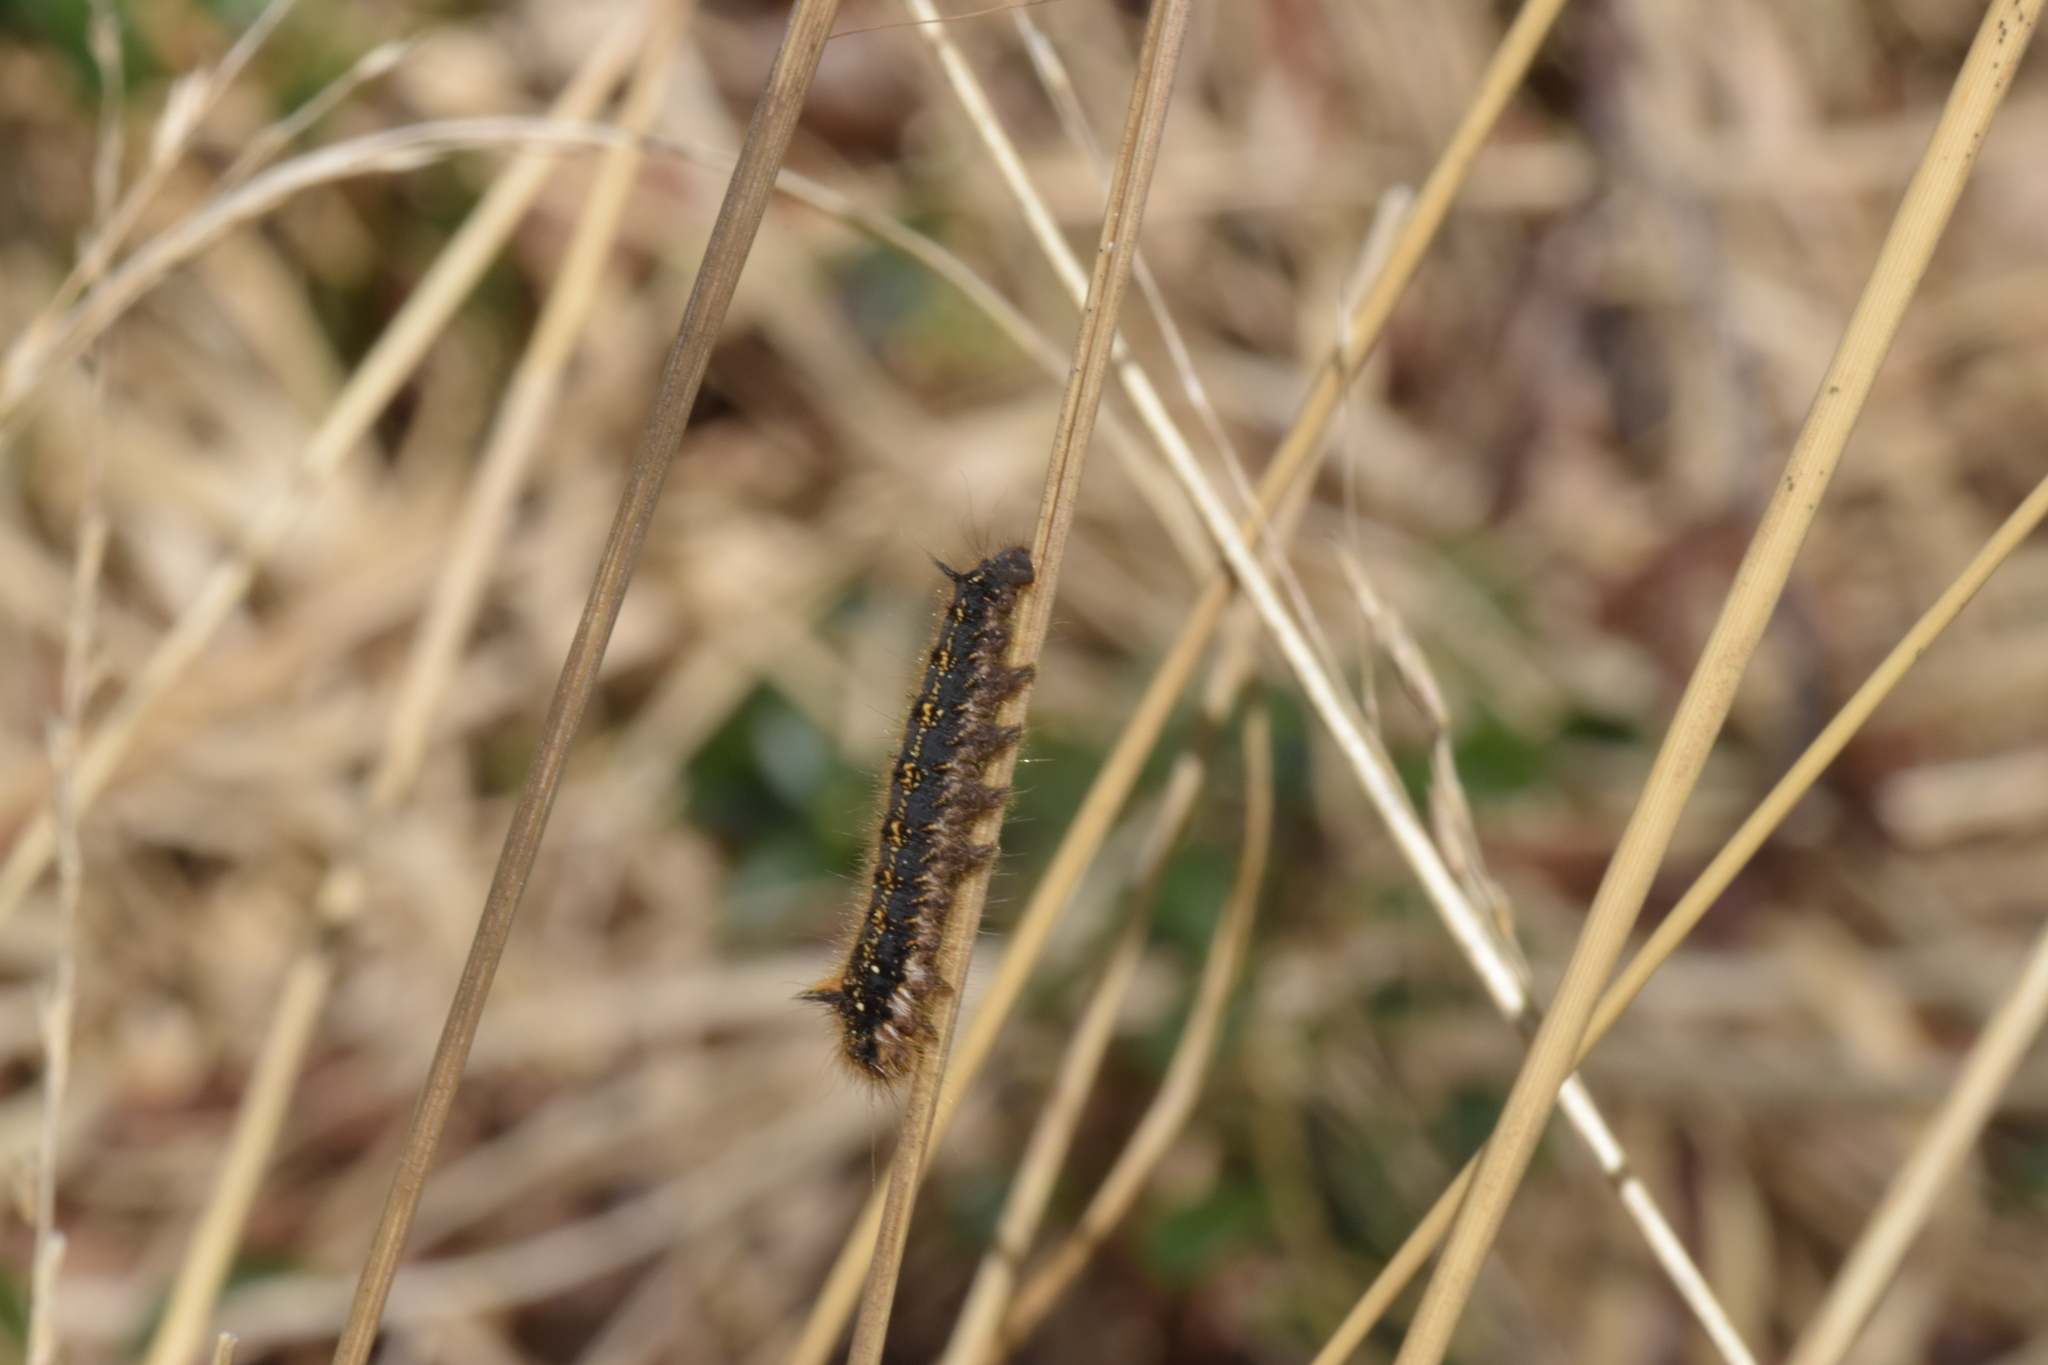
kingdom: Animalia
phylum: Arthropoda
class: Insecta
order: Lepidoptera
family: Lasiocampidae
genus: Euthrix
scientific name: Euthrix potatoria
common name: Drinker
